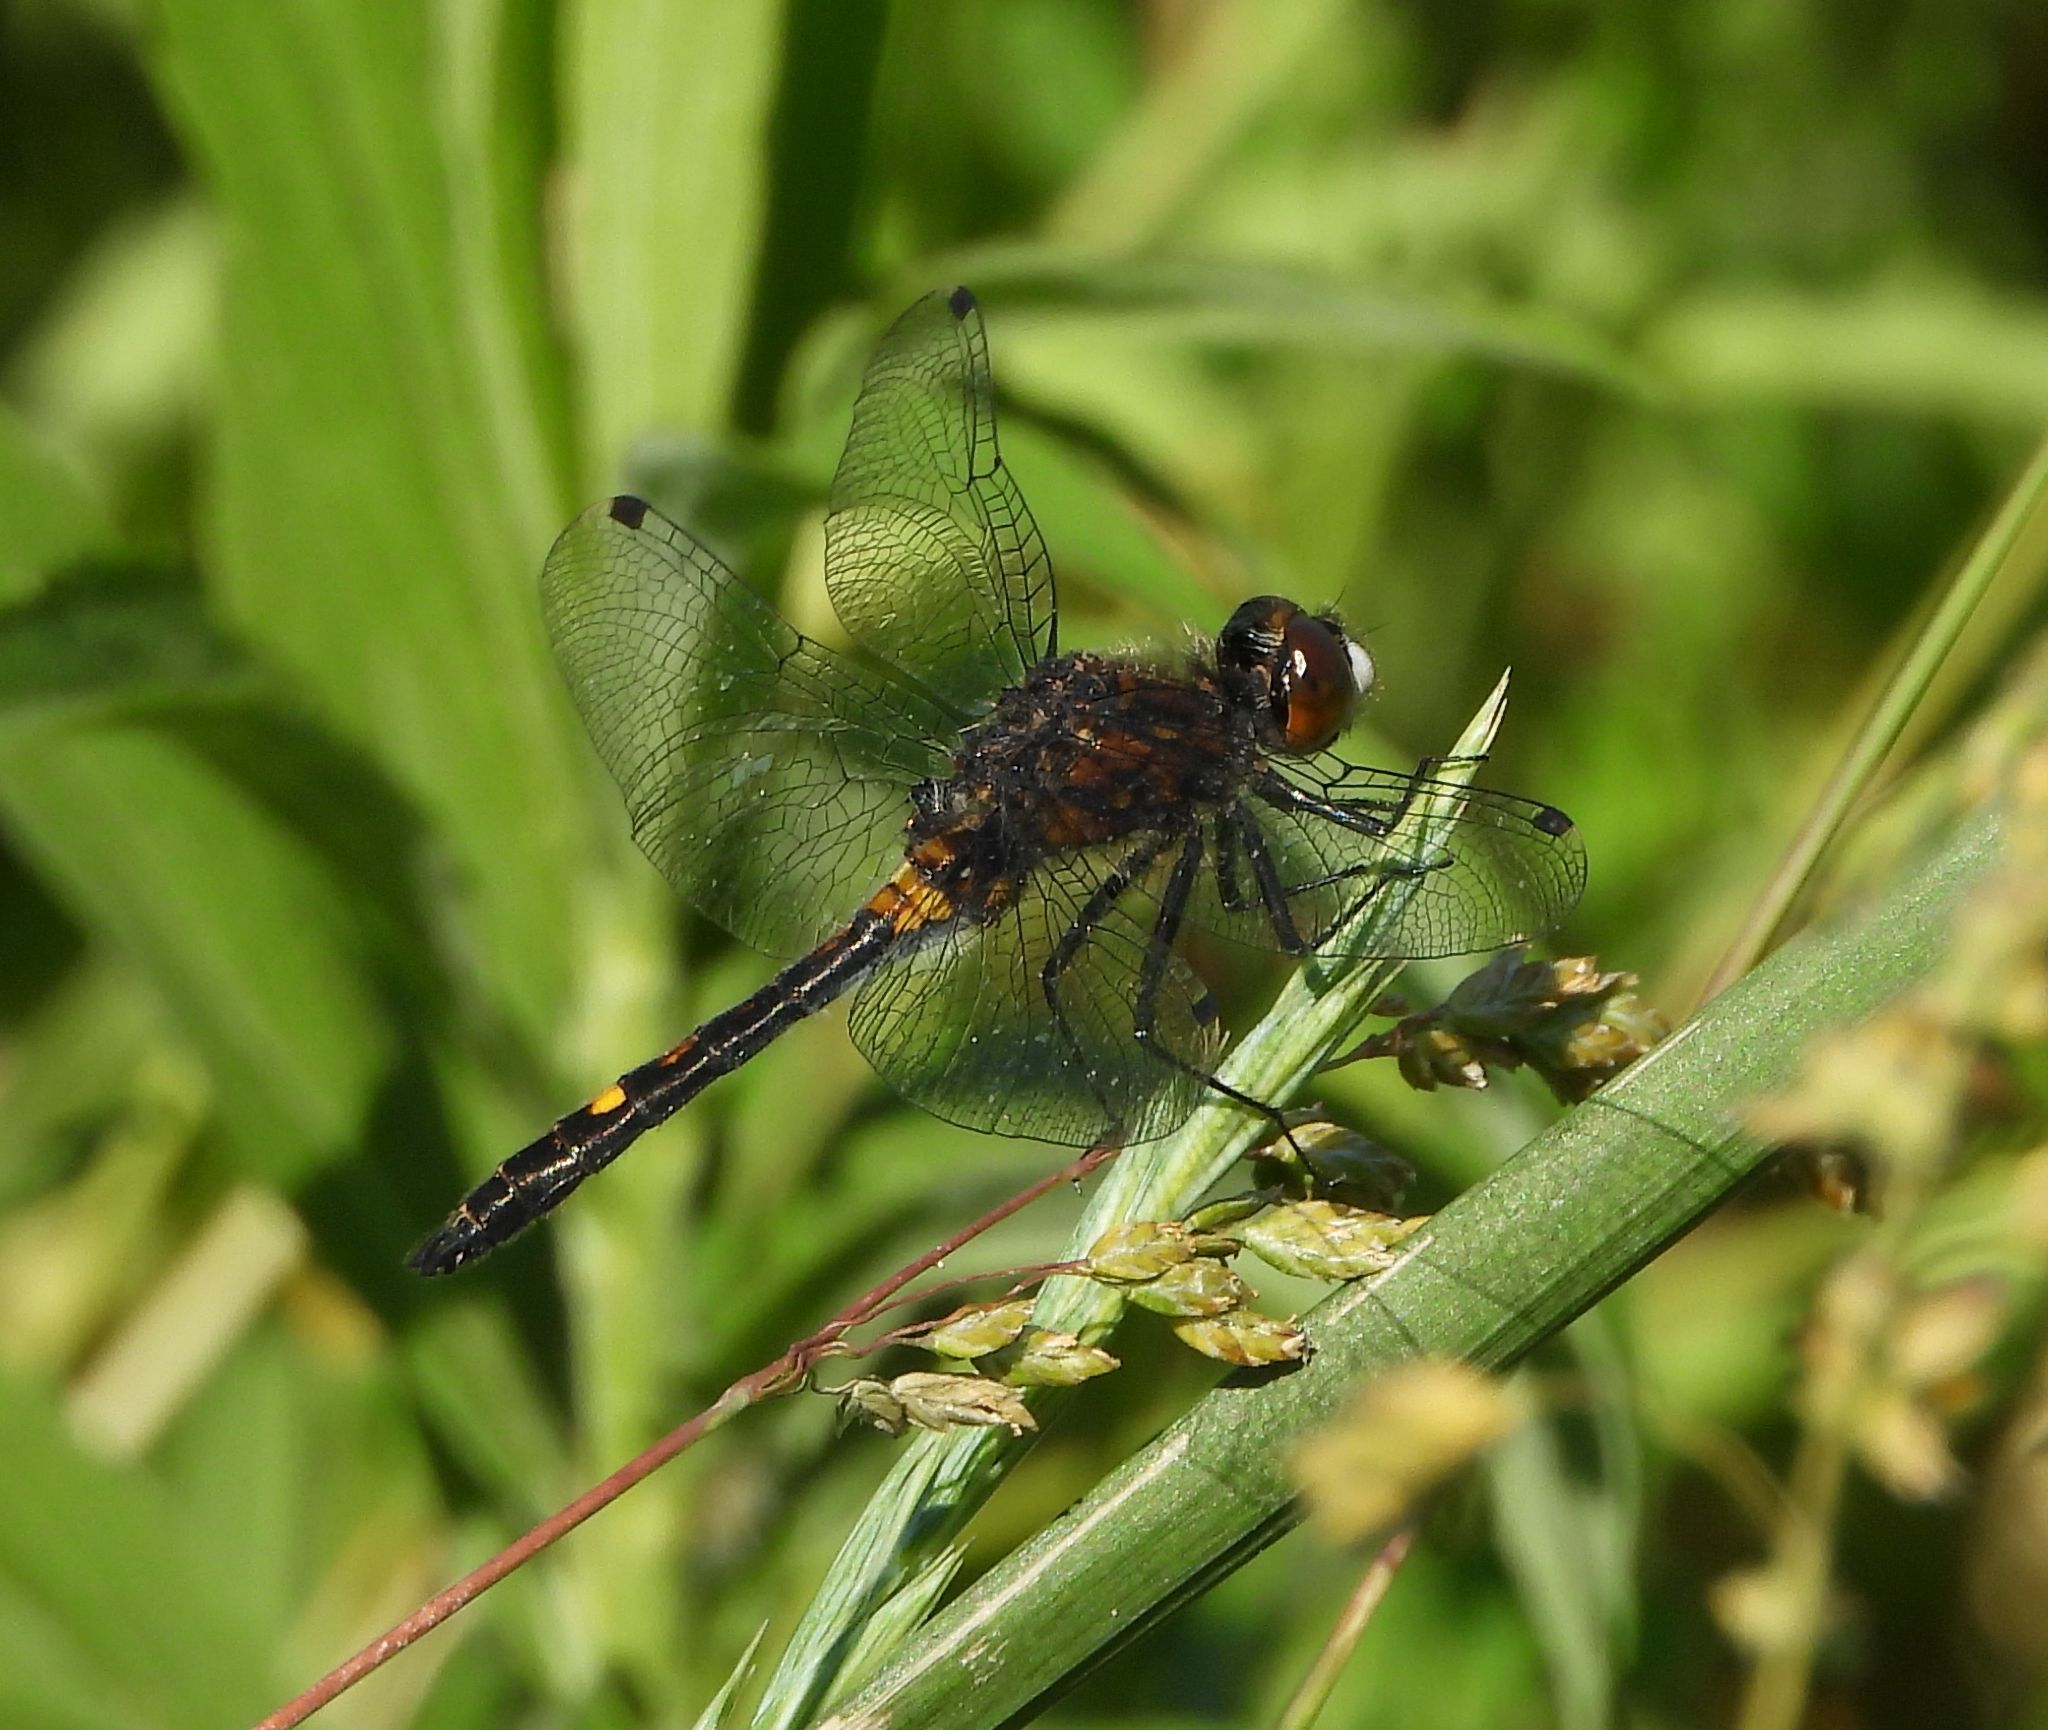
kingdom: Animalia
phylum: Arthropoda
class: Insecta
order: Odonata
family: Libellulidae
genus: Leucorrhinia
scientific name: Leucorrhinia intacta
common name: Dot-tailed whiteface
